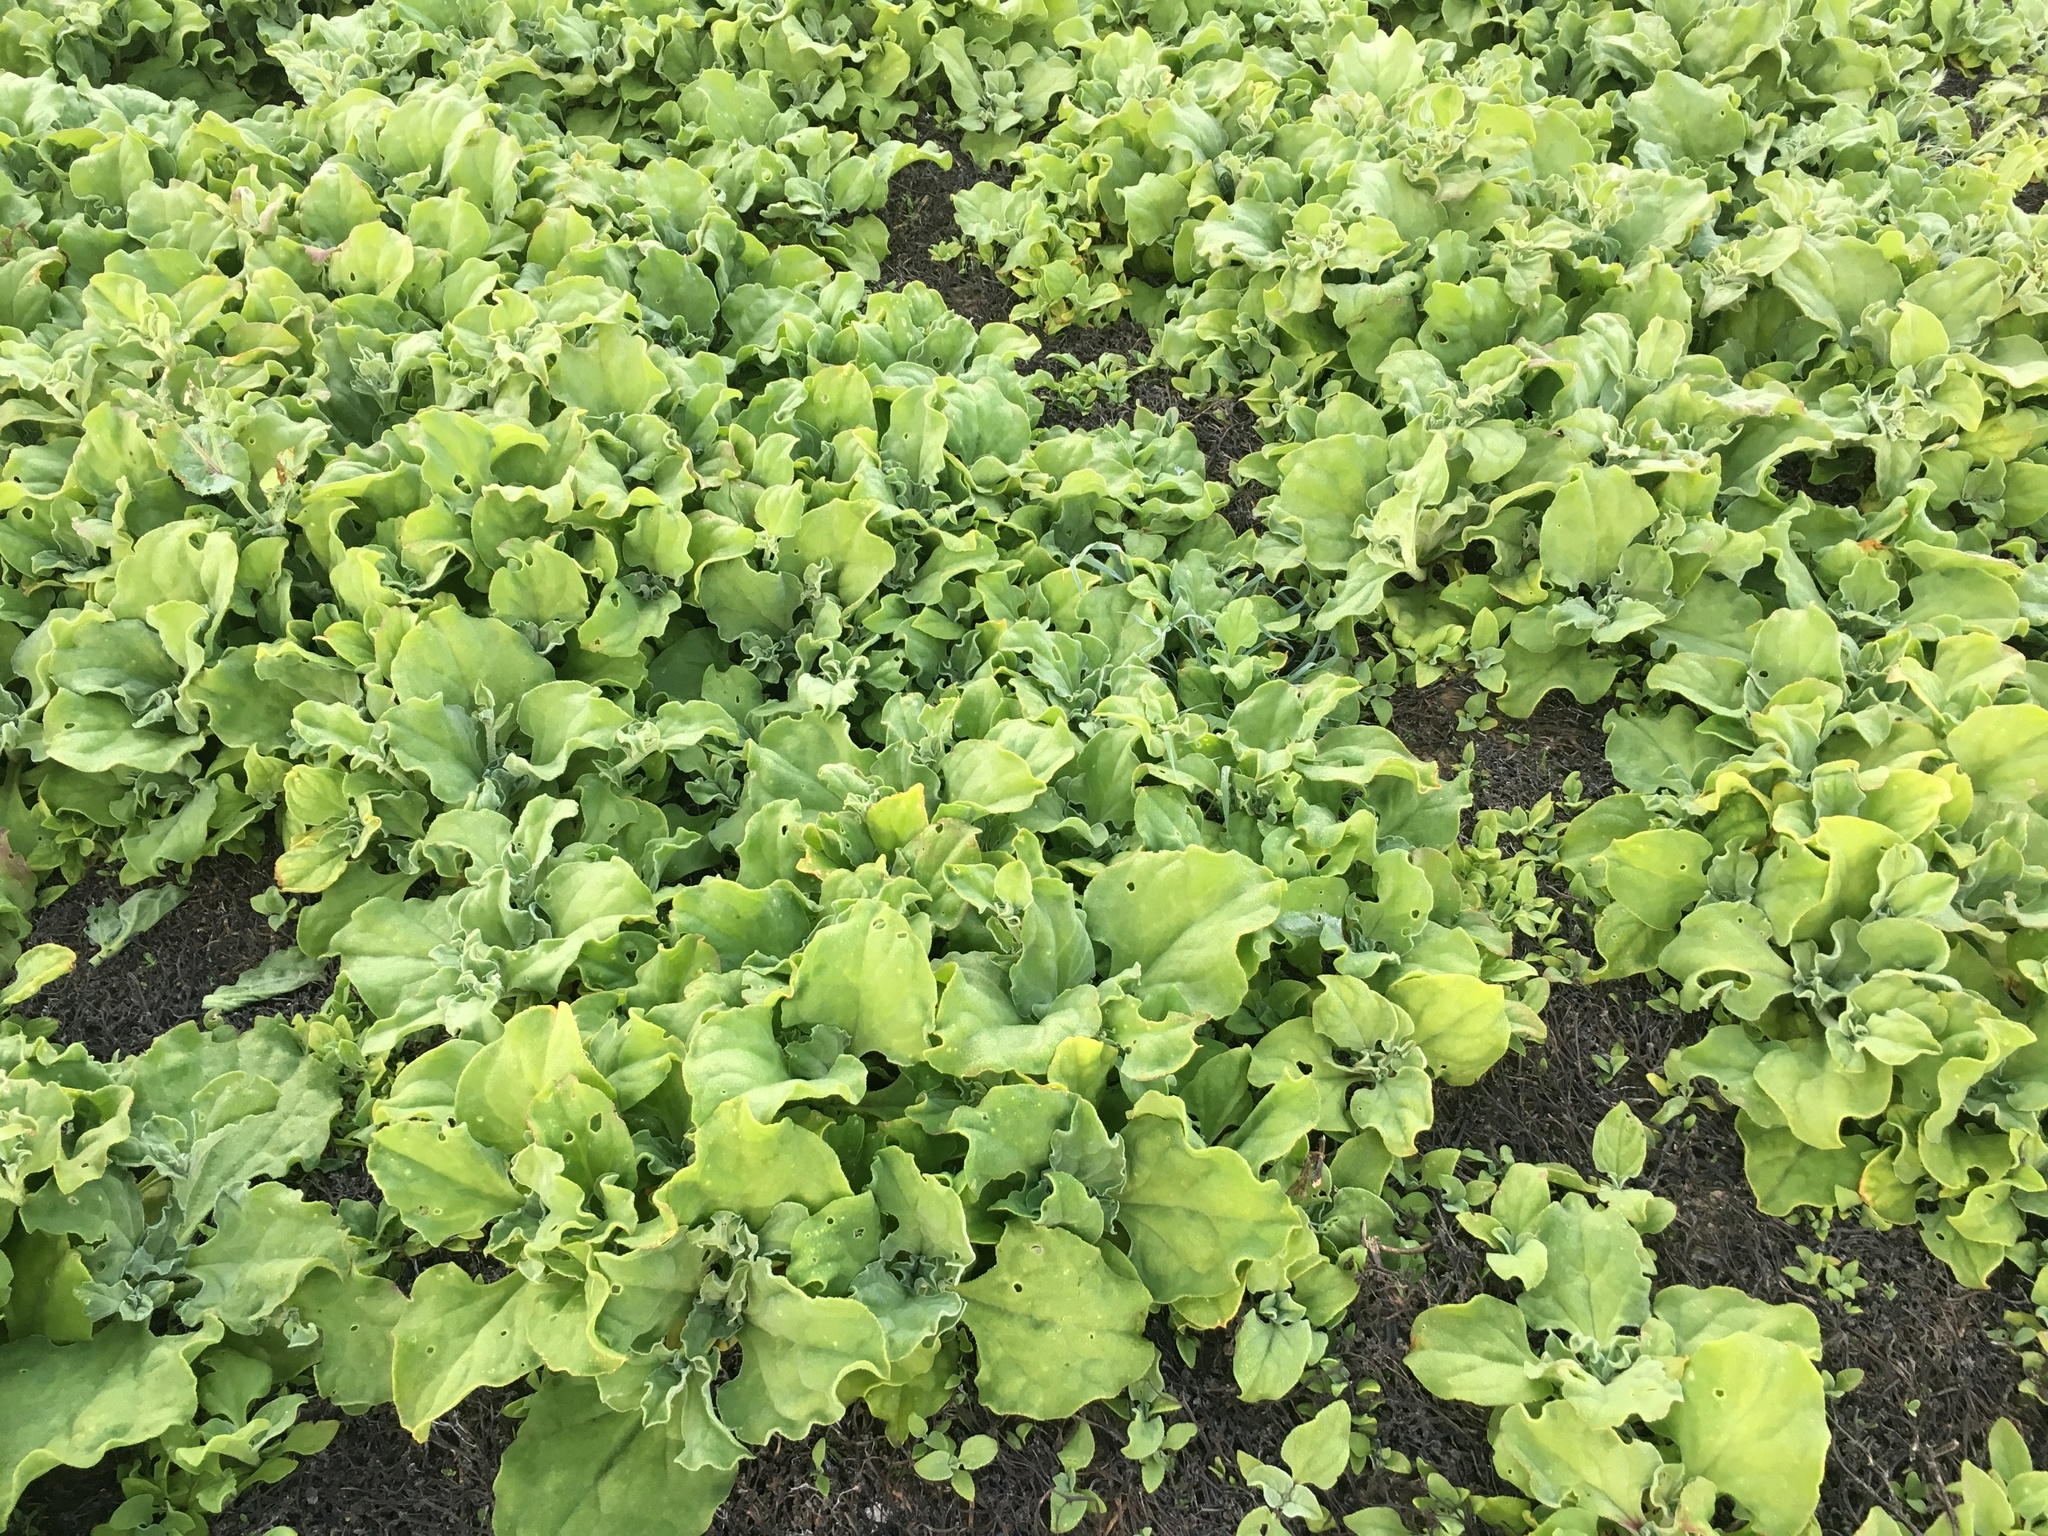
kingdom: Plantae
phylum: Tracheophyta
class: Magnoliopsida
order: Caryophyllales
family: Aizoaceae
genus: Mesembryanthemum
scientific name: Mesembryanthemum crystallinum
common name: Common iceplant
